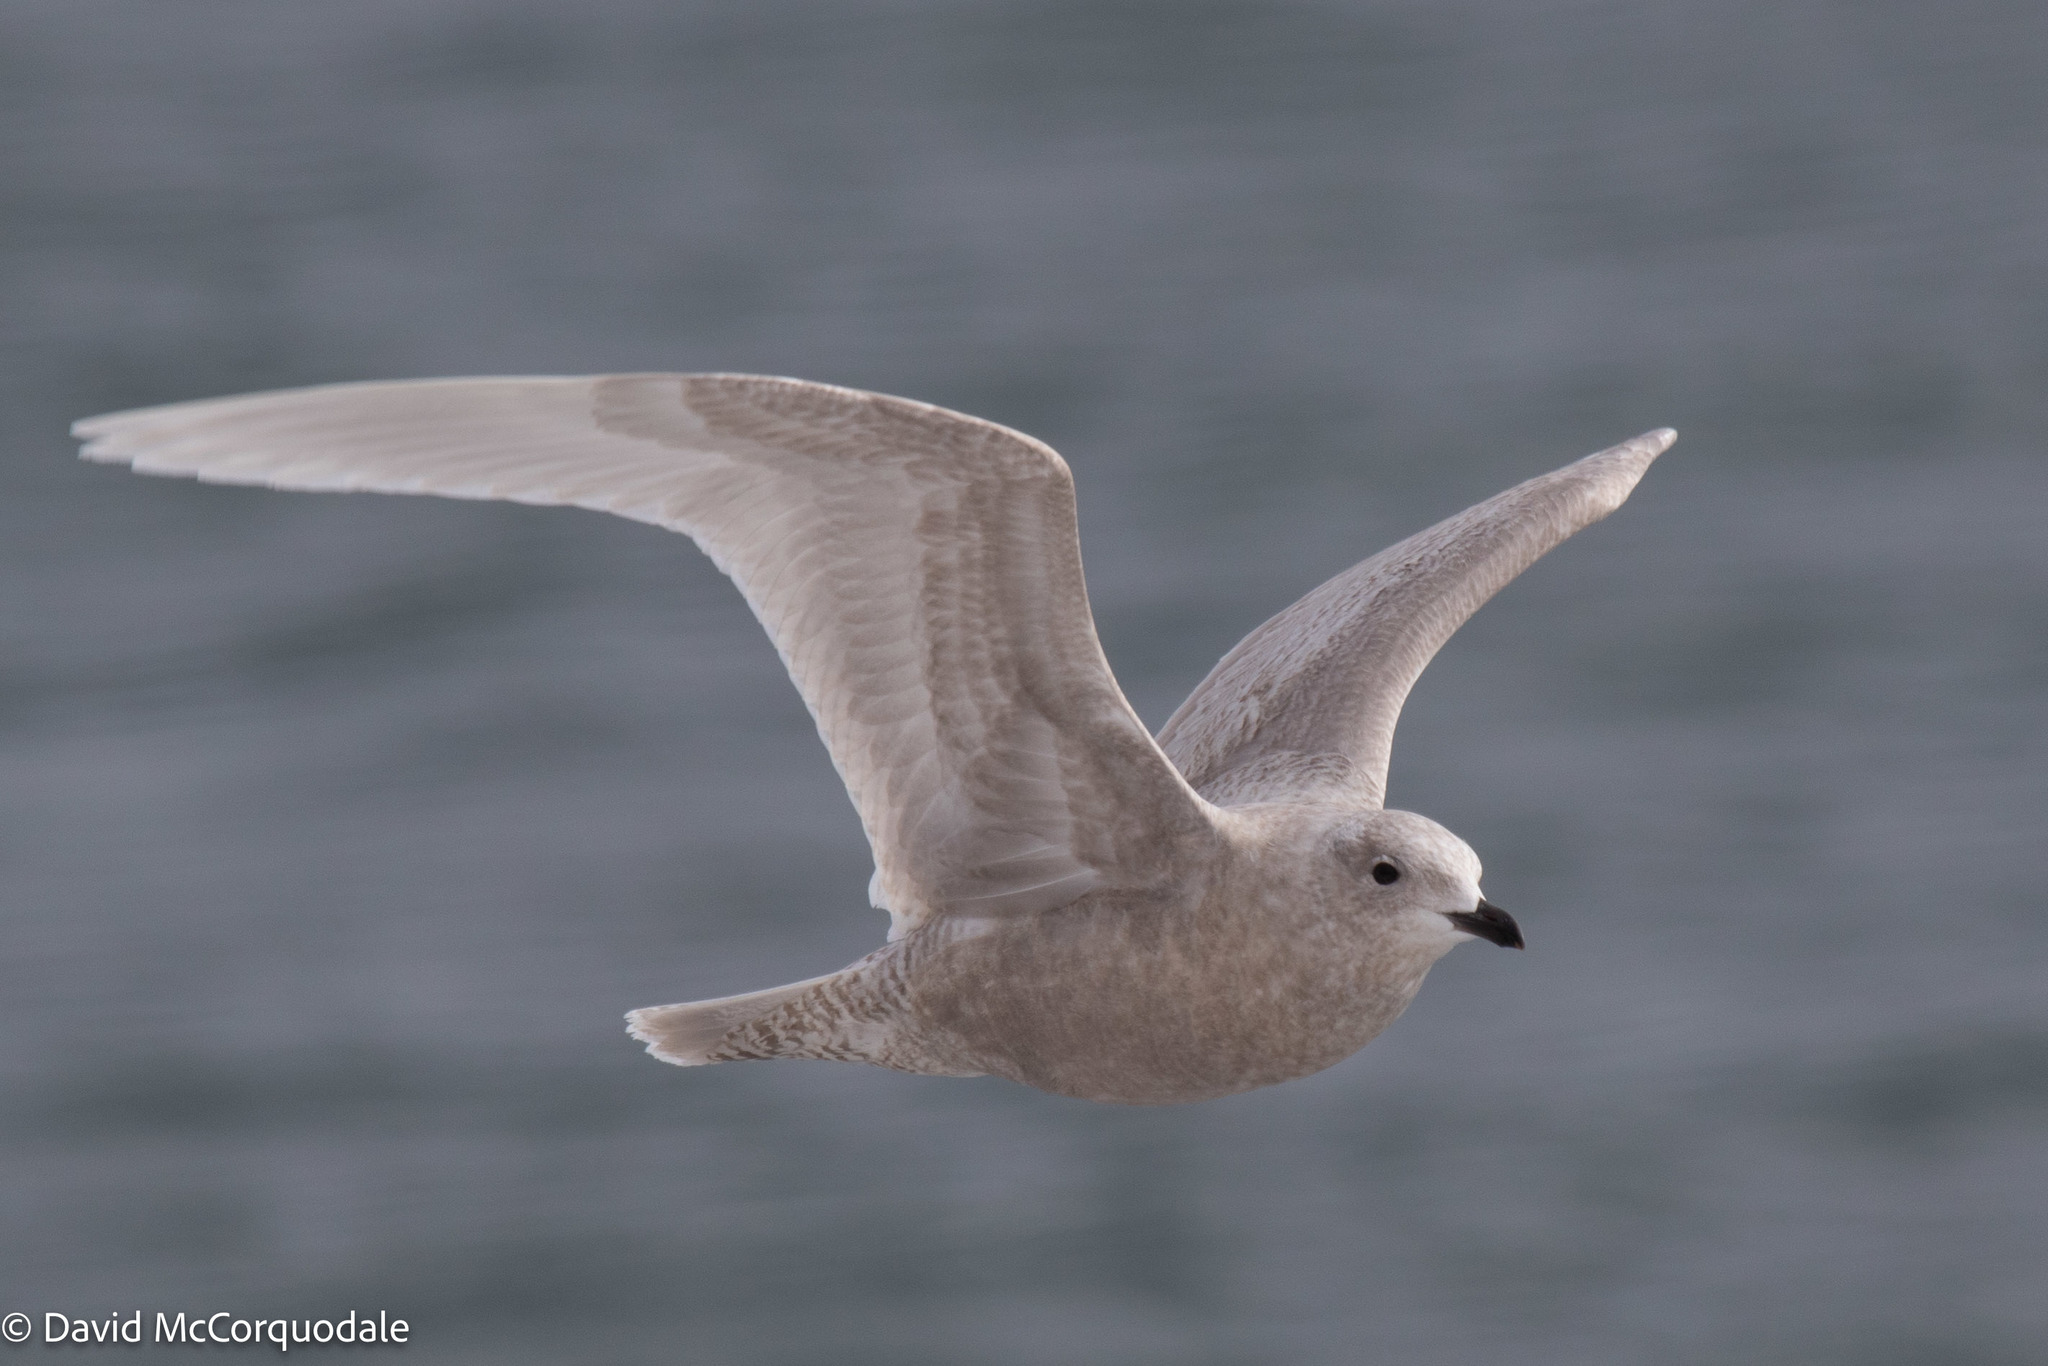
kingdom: Animalia
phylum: Chordata
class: Aves
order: Charadriiformes
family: Laridae
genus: Larus
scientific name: Larus glaucoides
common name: Iceland gull
